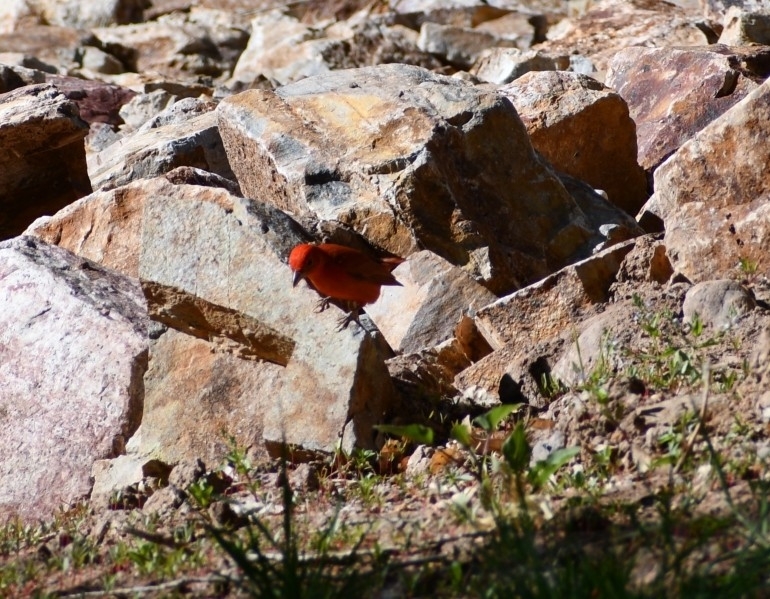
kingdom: Animalia
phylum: Chordata
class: Aves
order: Passeriformes
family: Cardinalidae
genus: Piranga
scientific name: Piranga rubra
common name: Summer tanager
